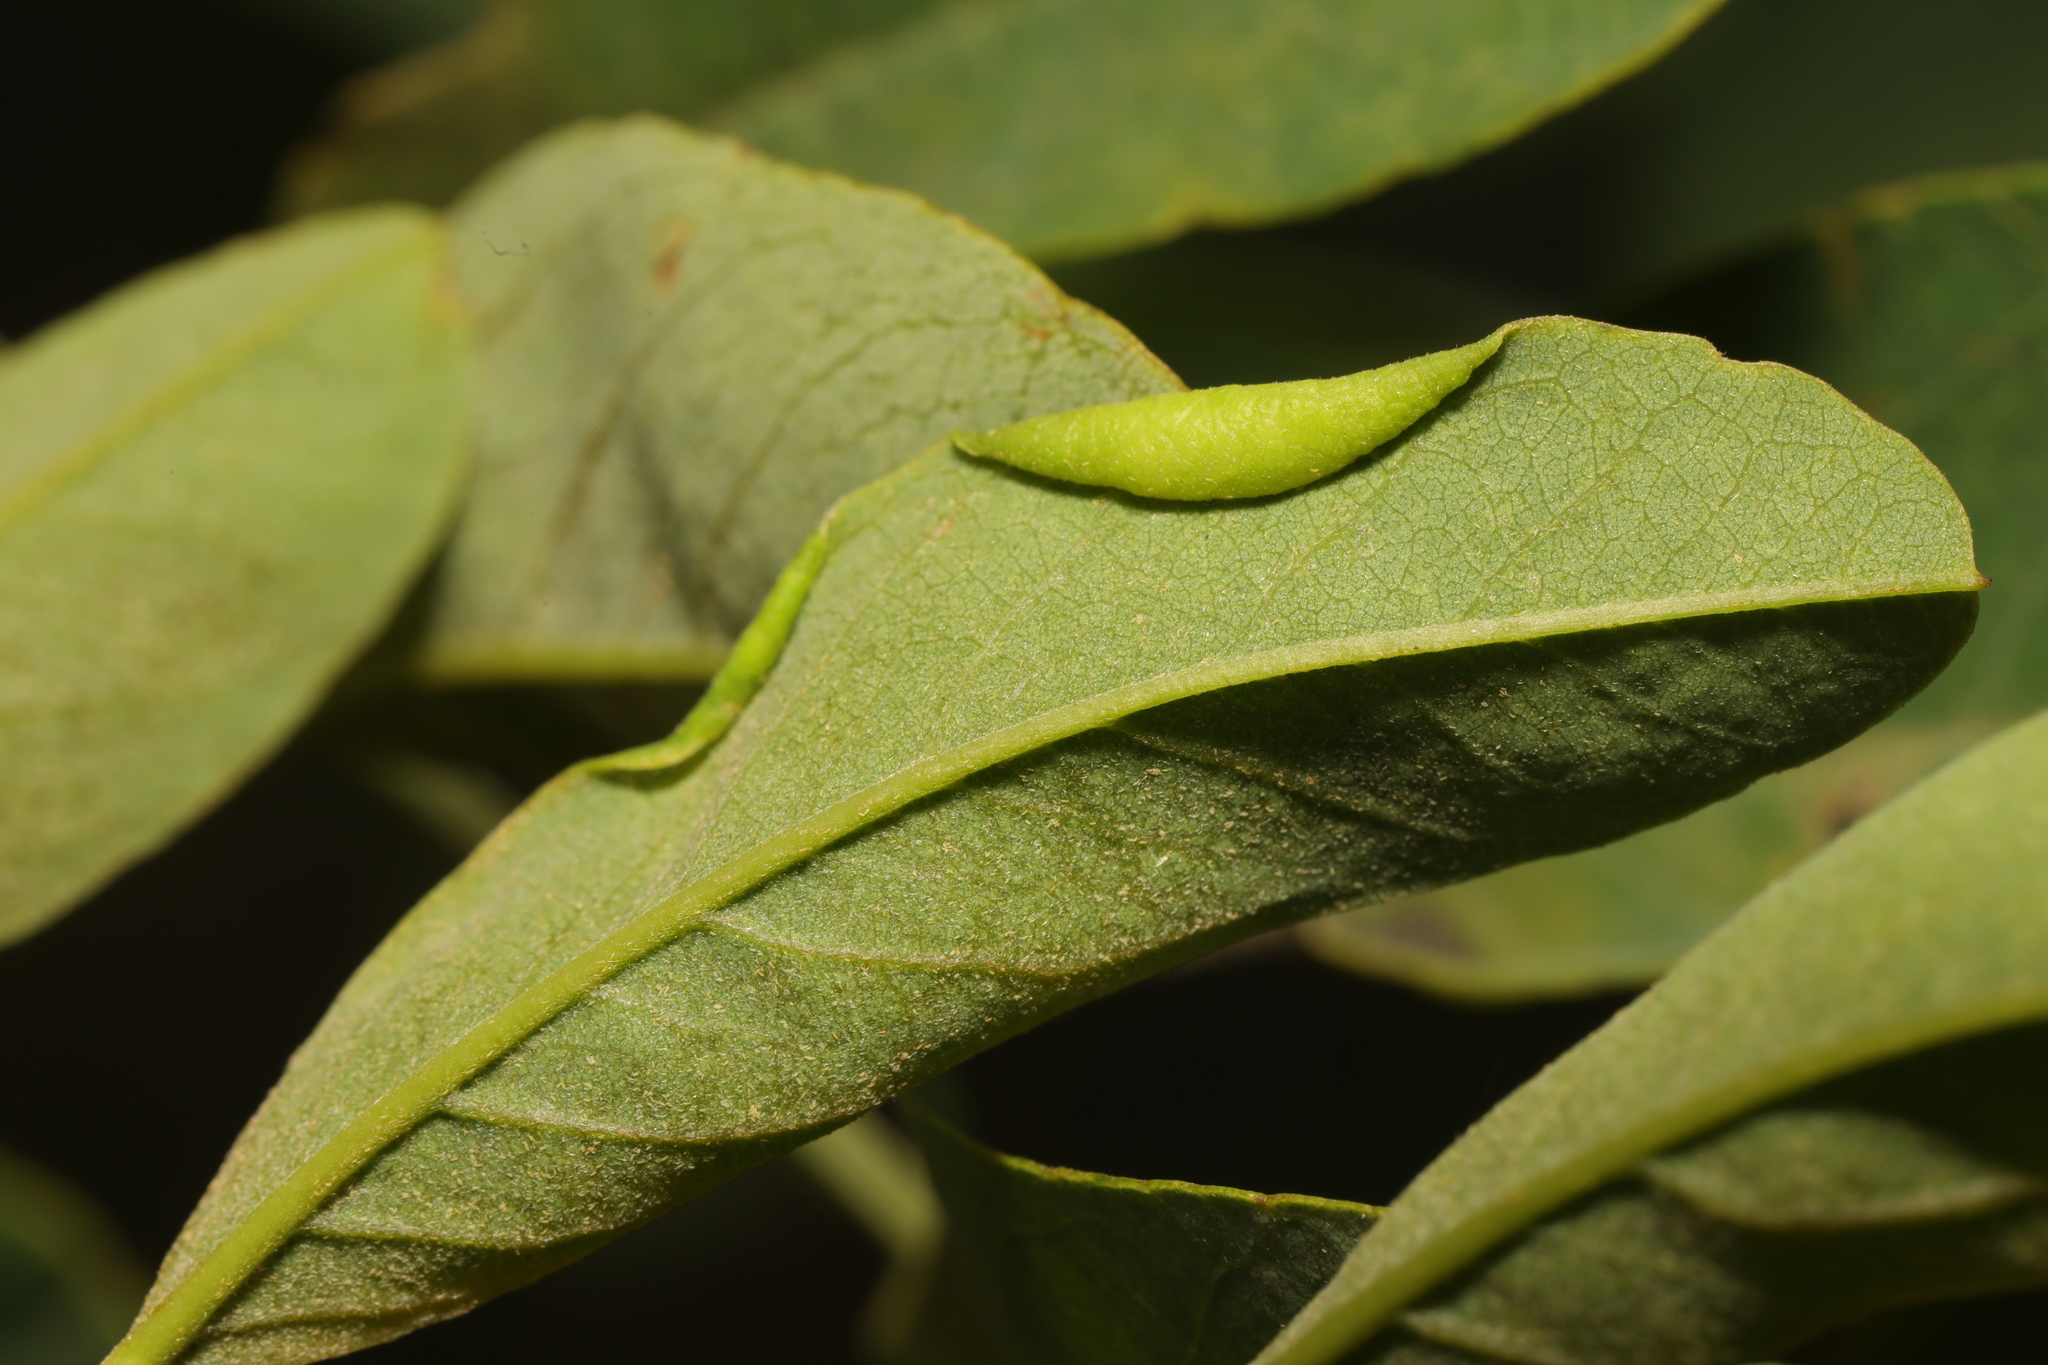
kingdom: Animalia
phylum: Arthropoda
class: Insecta
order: Diptera
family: Cecidomyiidae
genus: Obolodiplosis
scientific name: Obolodiplosis robiniae
